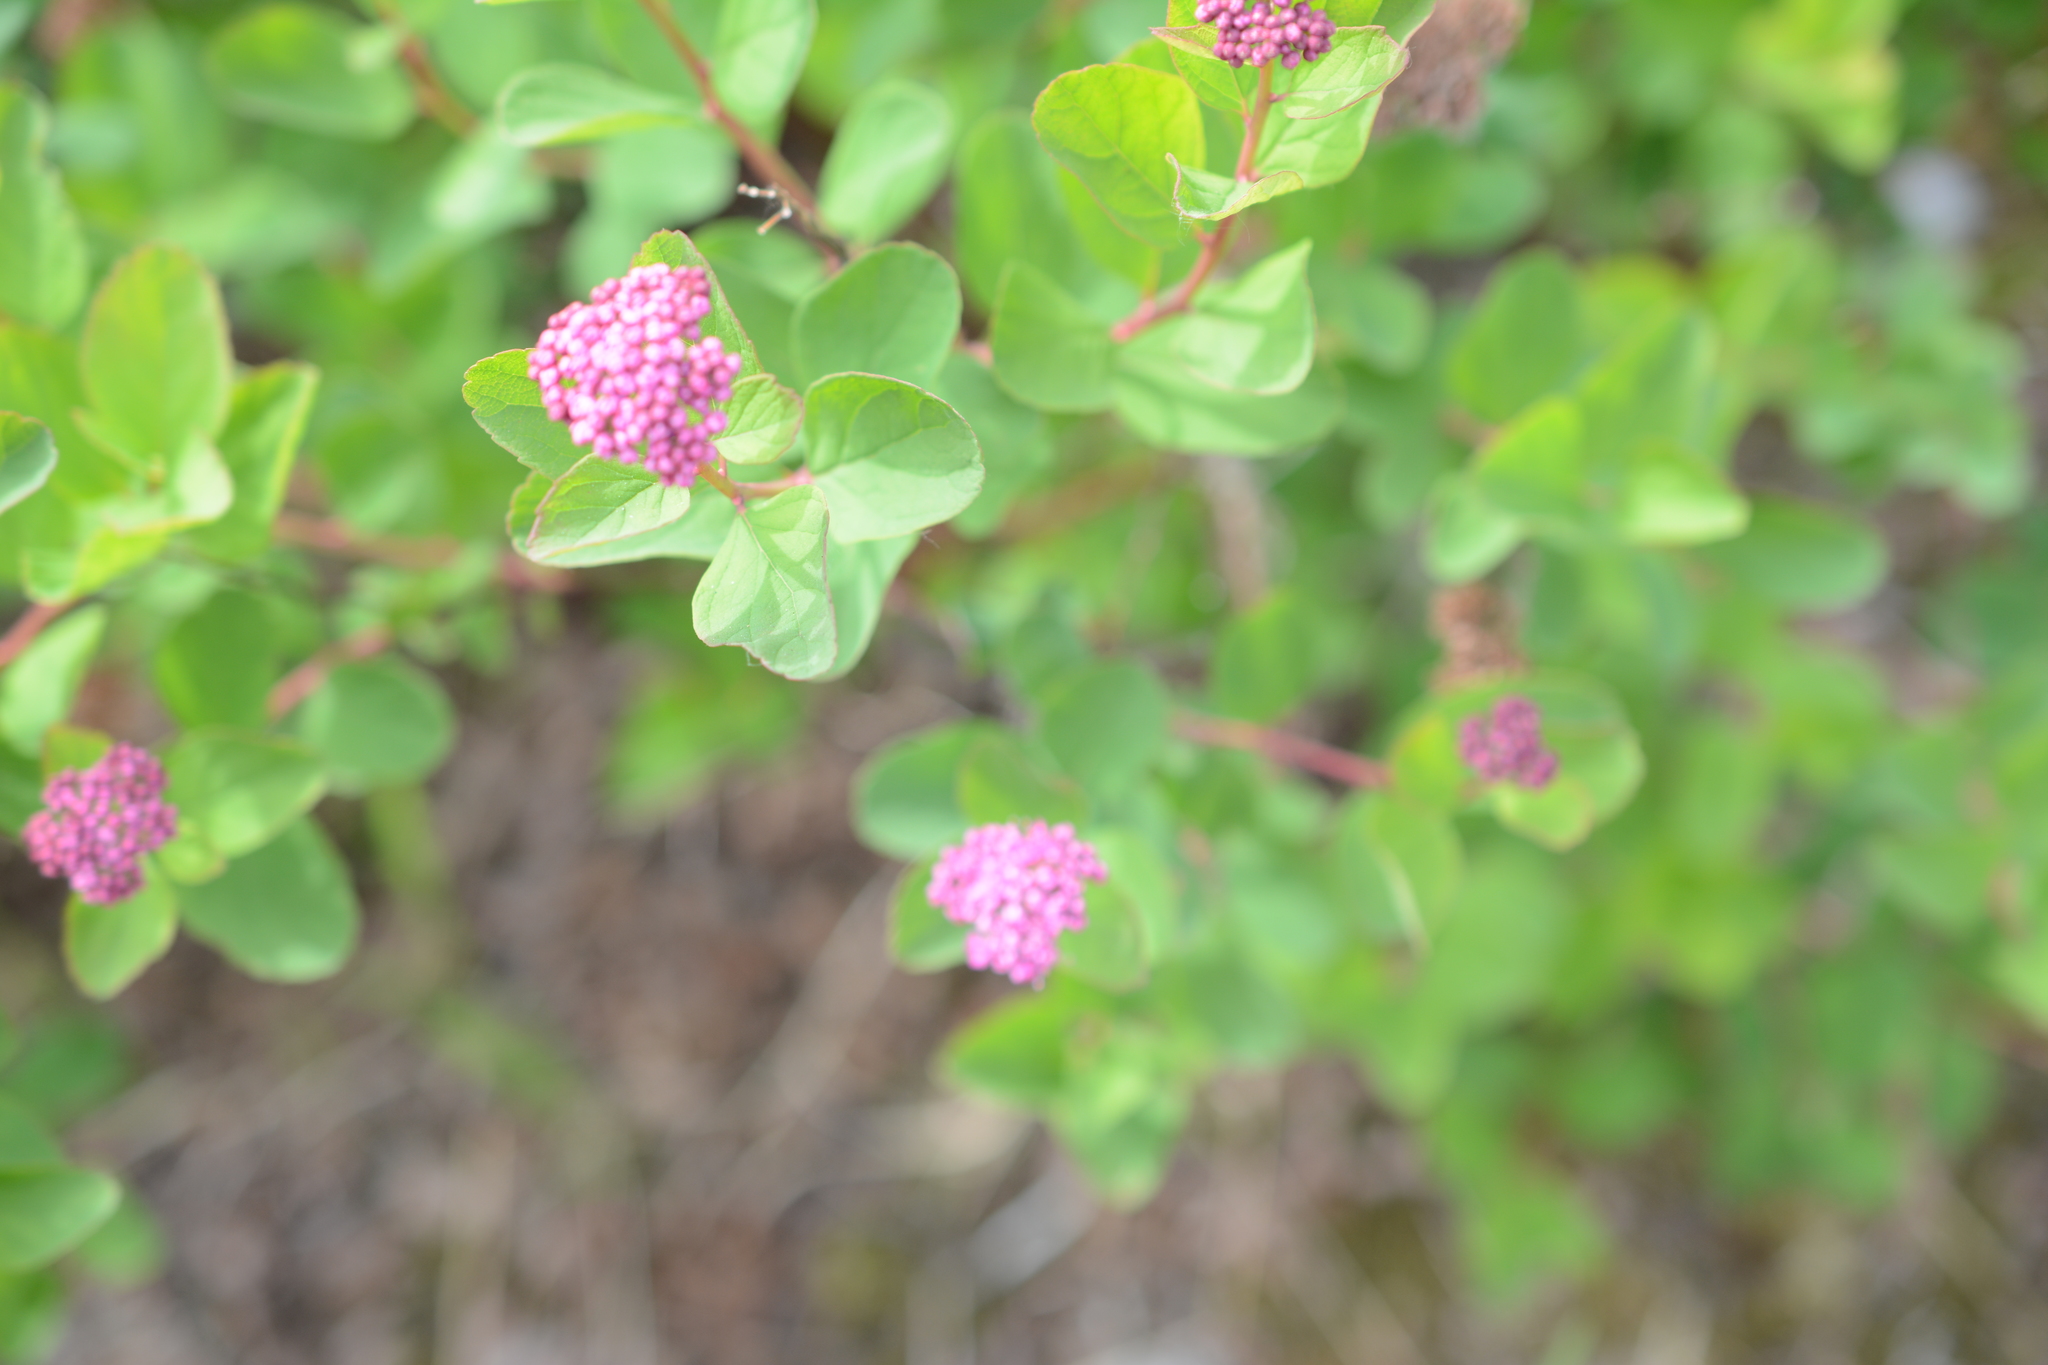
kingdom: Plantae
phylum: Tracheophyta
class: Magnoliopsida
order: Rosales
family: Rosaceae
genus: Spiraea
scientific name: Spiraea splendens
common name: Subalpine meadowsweet
